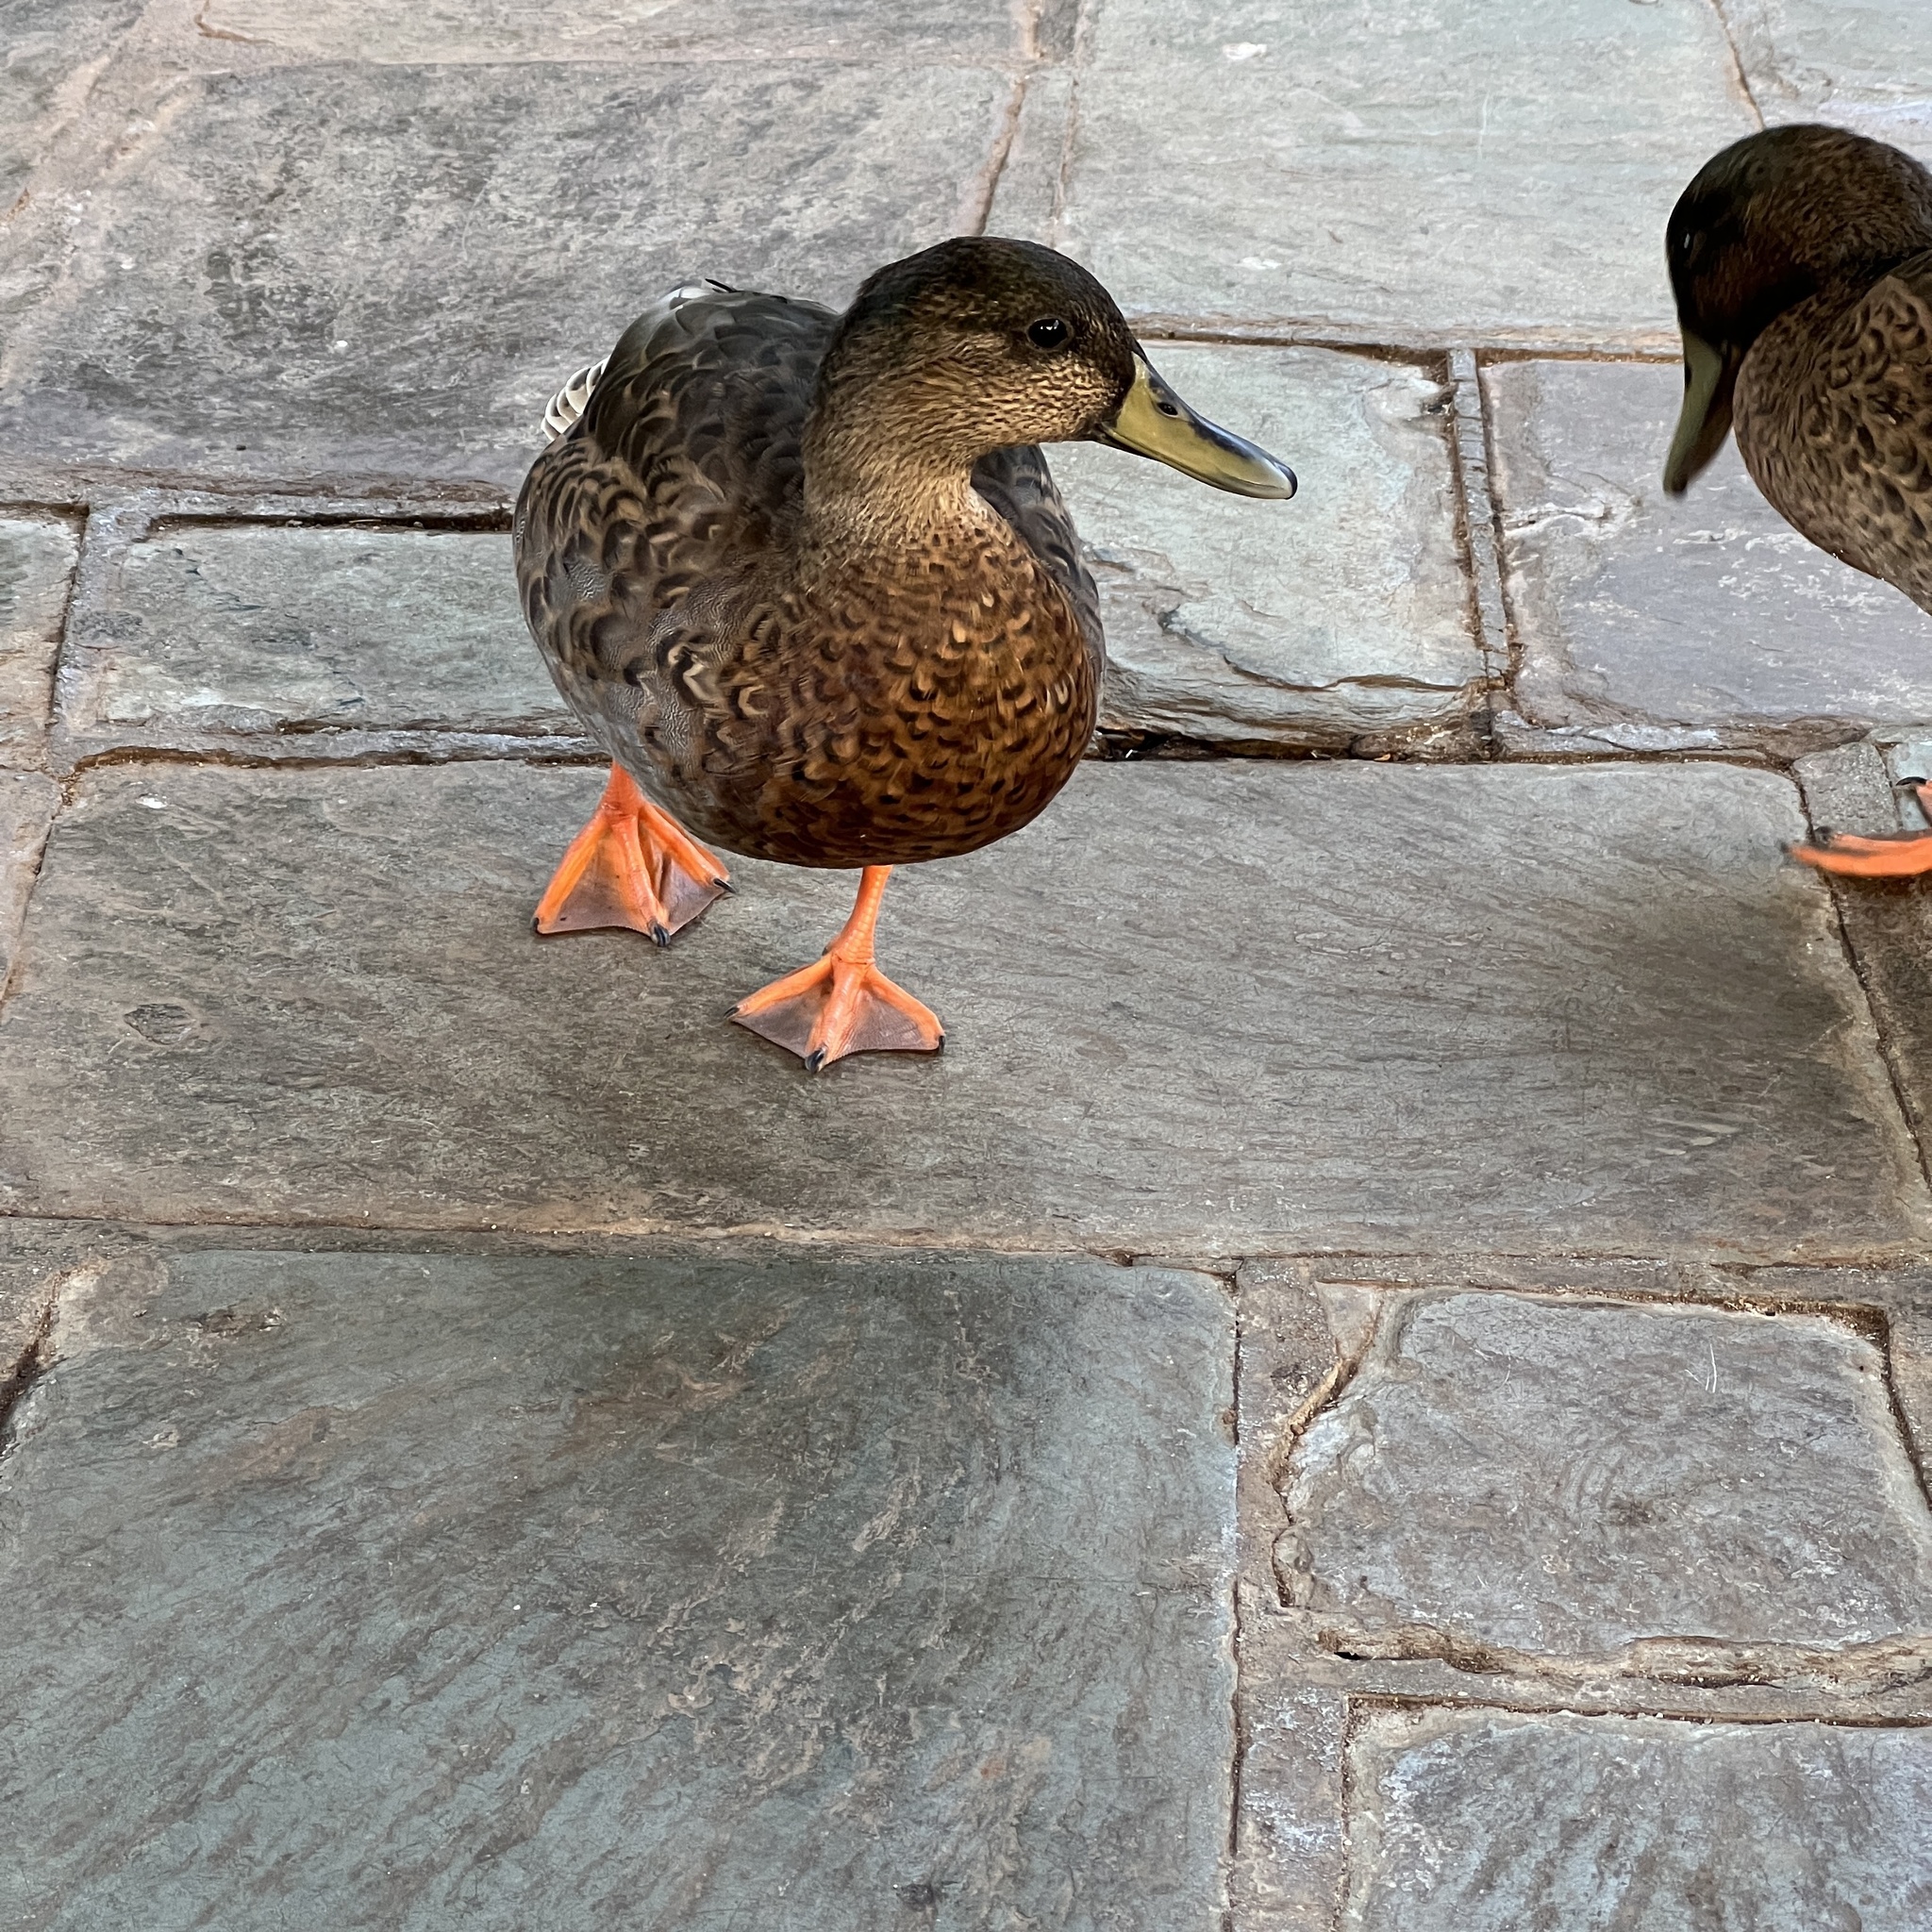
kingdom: Animalia
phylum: Chordata
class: Aves
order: Anseriformes
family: Anatidae
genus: Anas
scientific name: Anas
